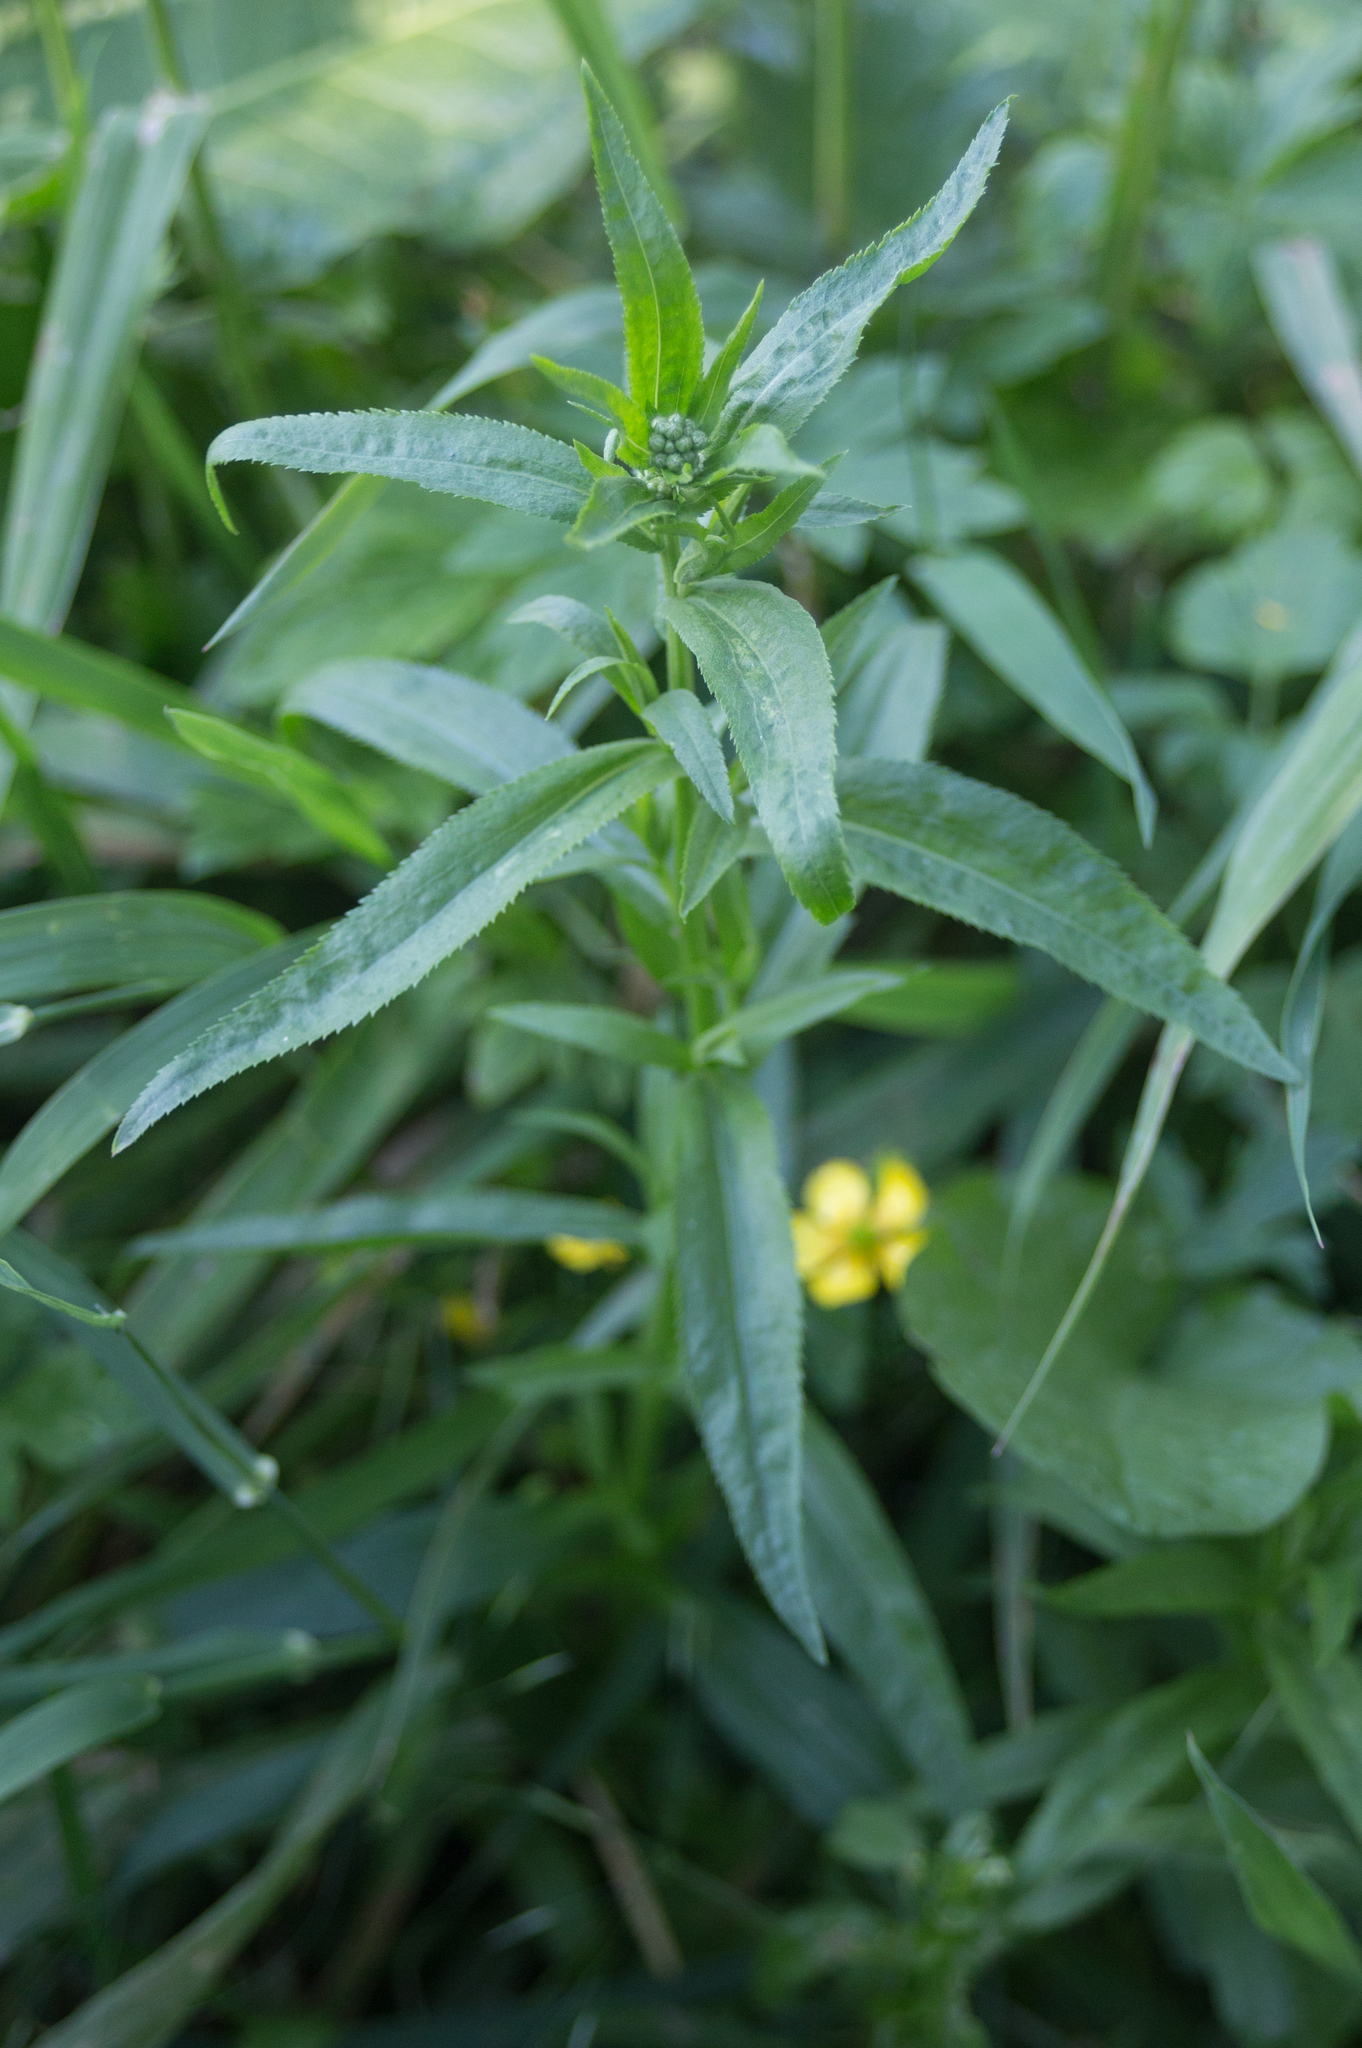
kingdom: Plantae
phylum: Tracheophyta
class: Magnoliopsida
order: Asterales
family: Asteraceae
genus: Achillea
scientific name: Achillea salicifolia
